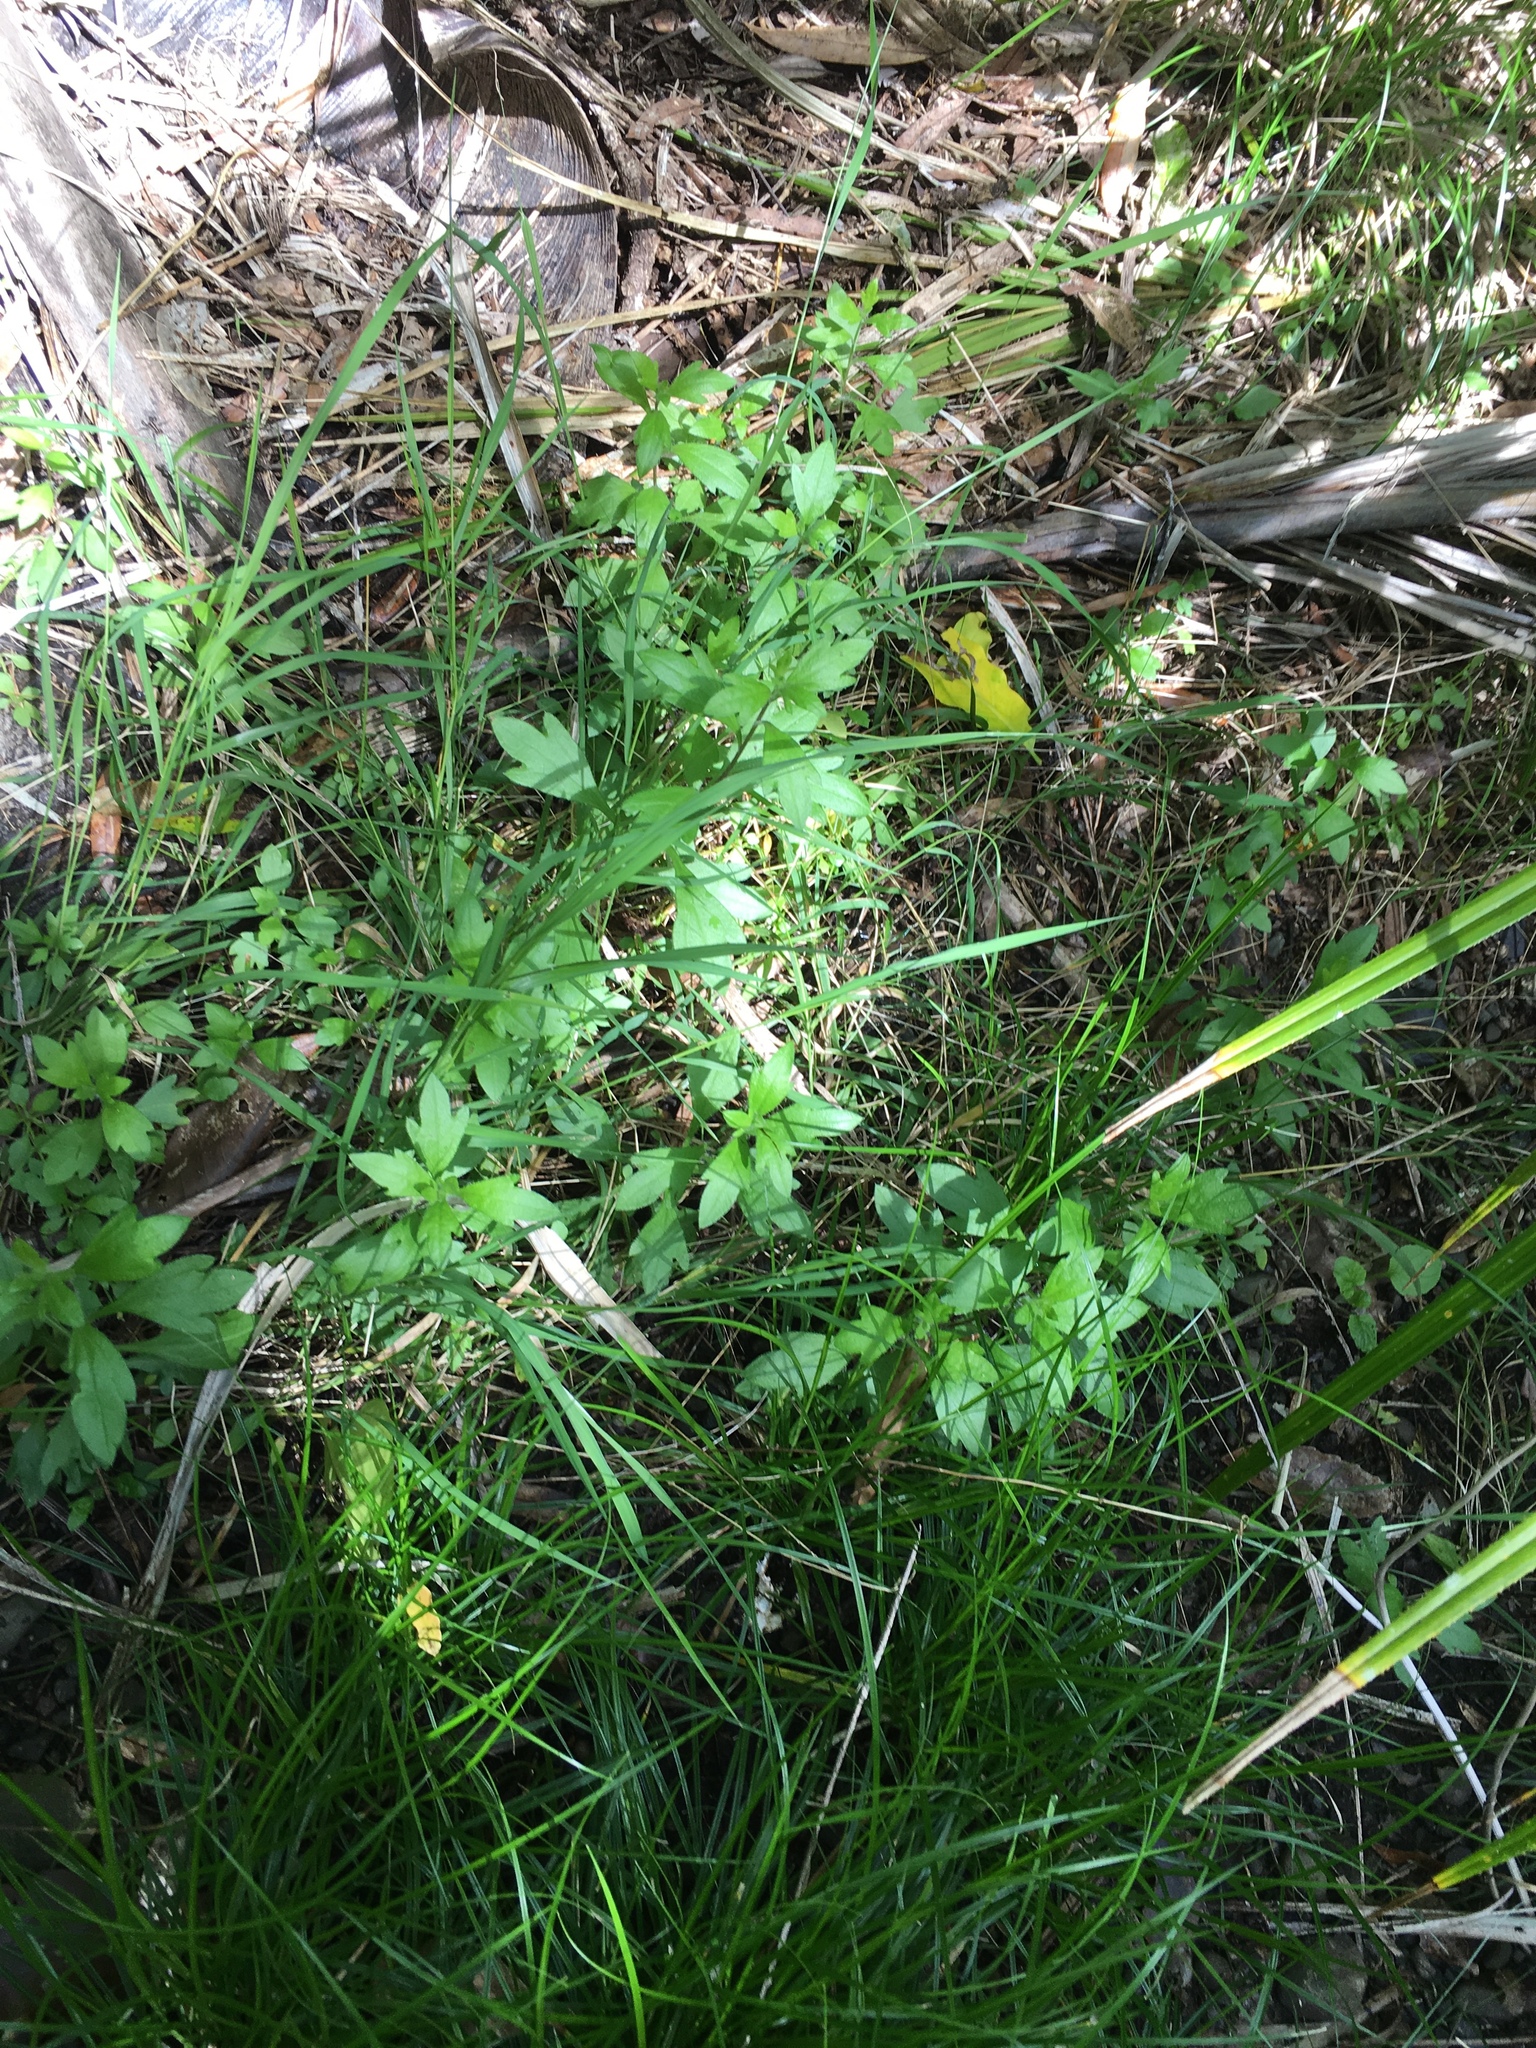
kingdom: Plantae
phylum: Tracheophyta
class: Magnoliopsida
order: Asterales
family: Asteraceae
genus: Erigeron
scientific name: Erigeron karvinskianus
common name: Mexican fleabane
